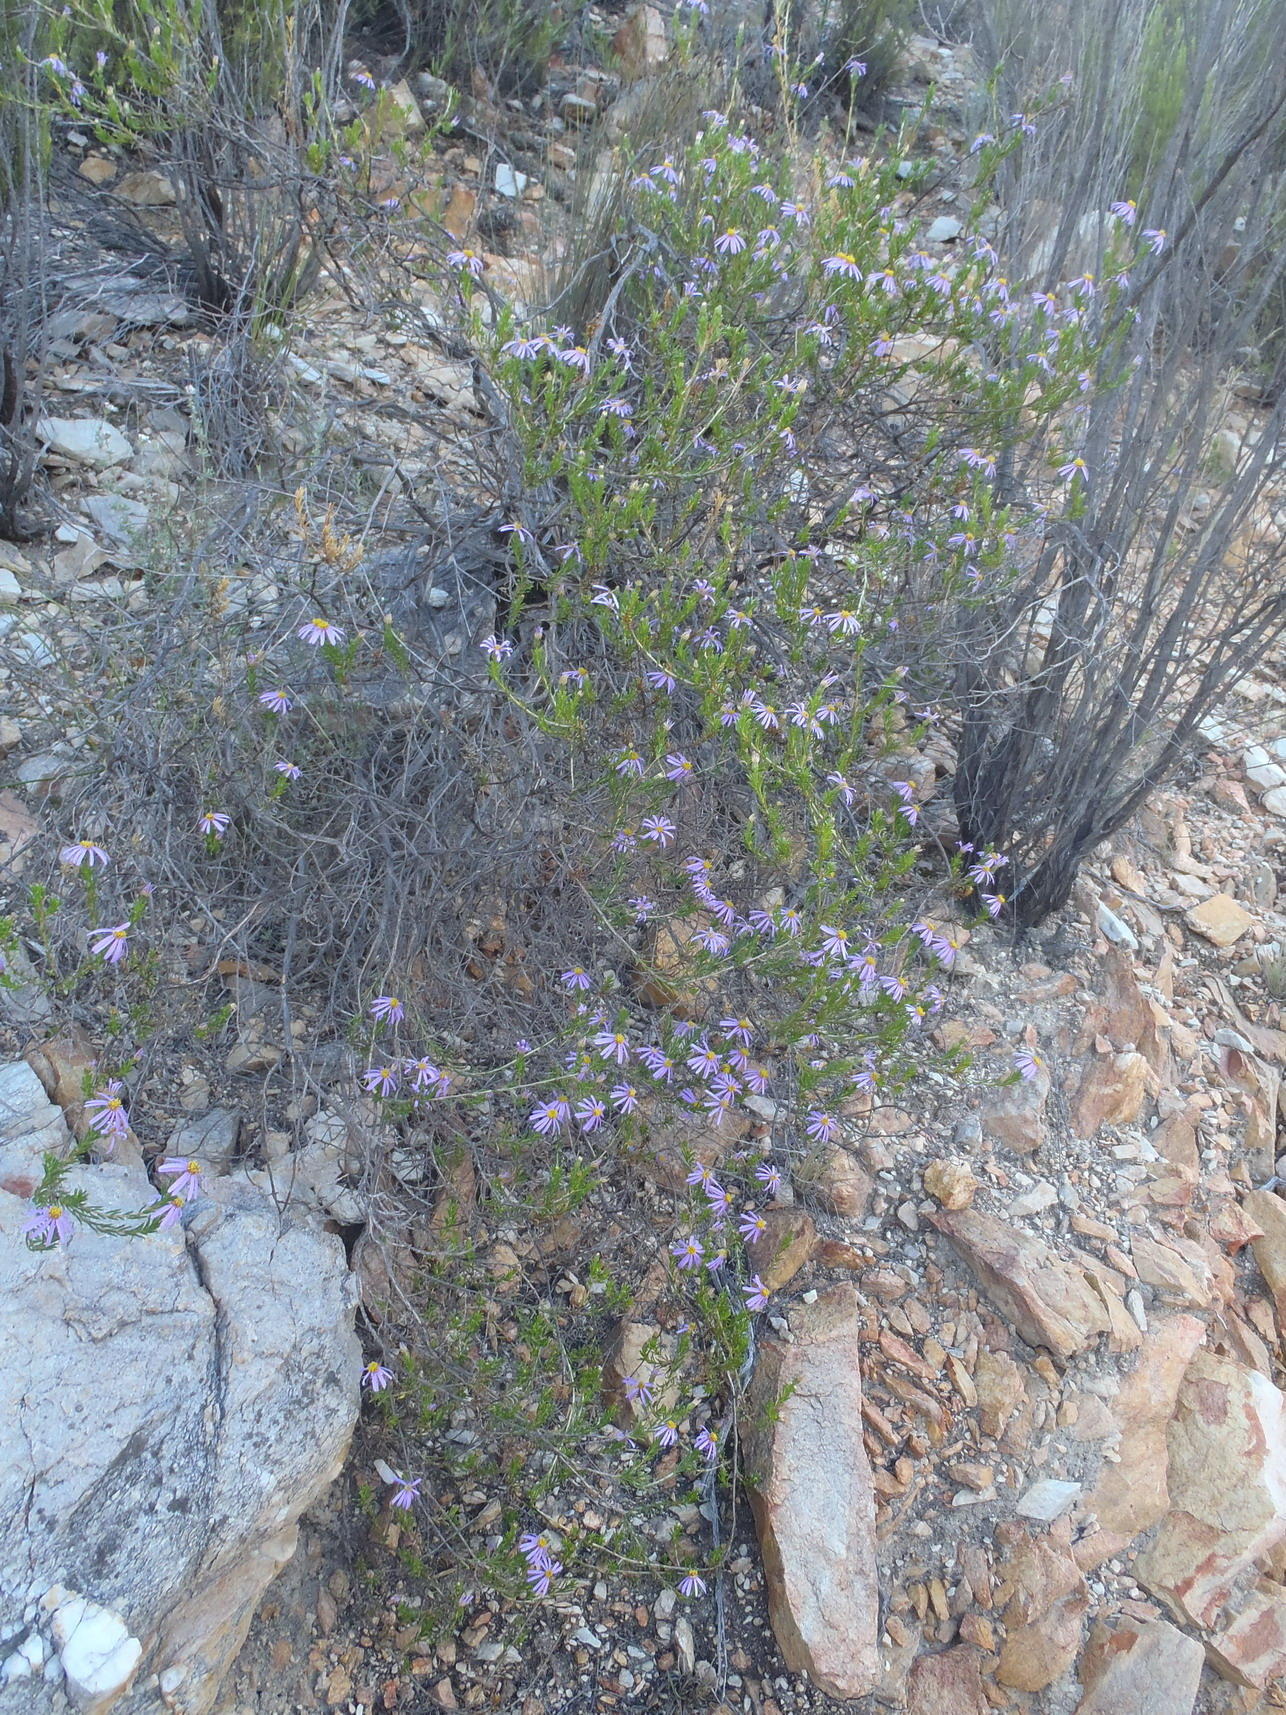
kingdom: Plantae
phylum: Tracheophyta
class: Magnoliopsida
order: Asterales
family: Asteraceae
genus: Felicia
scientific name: Felicia filifolia
